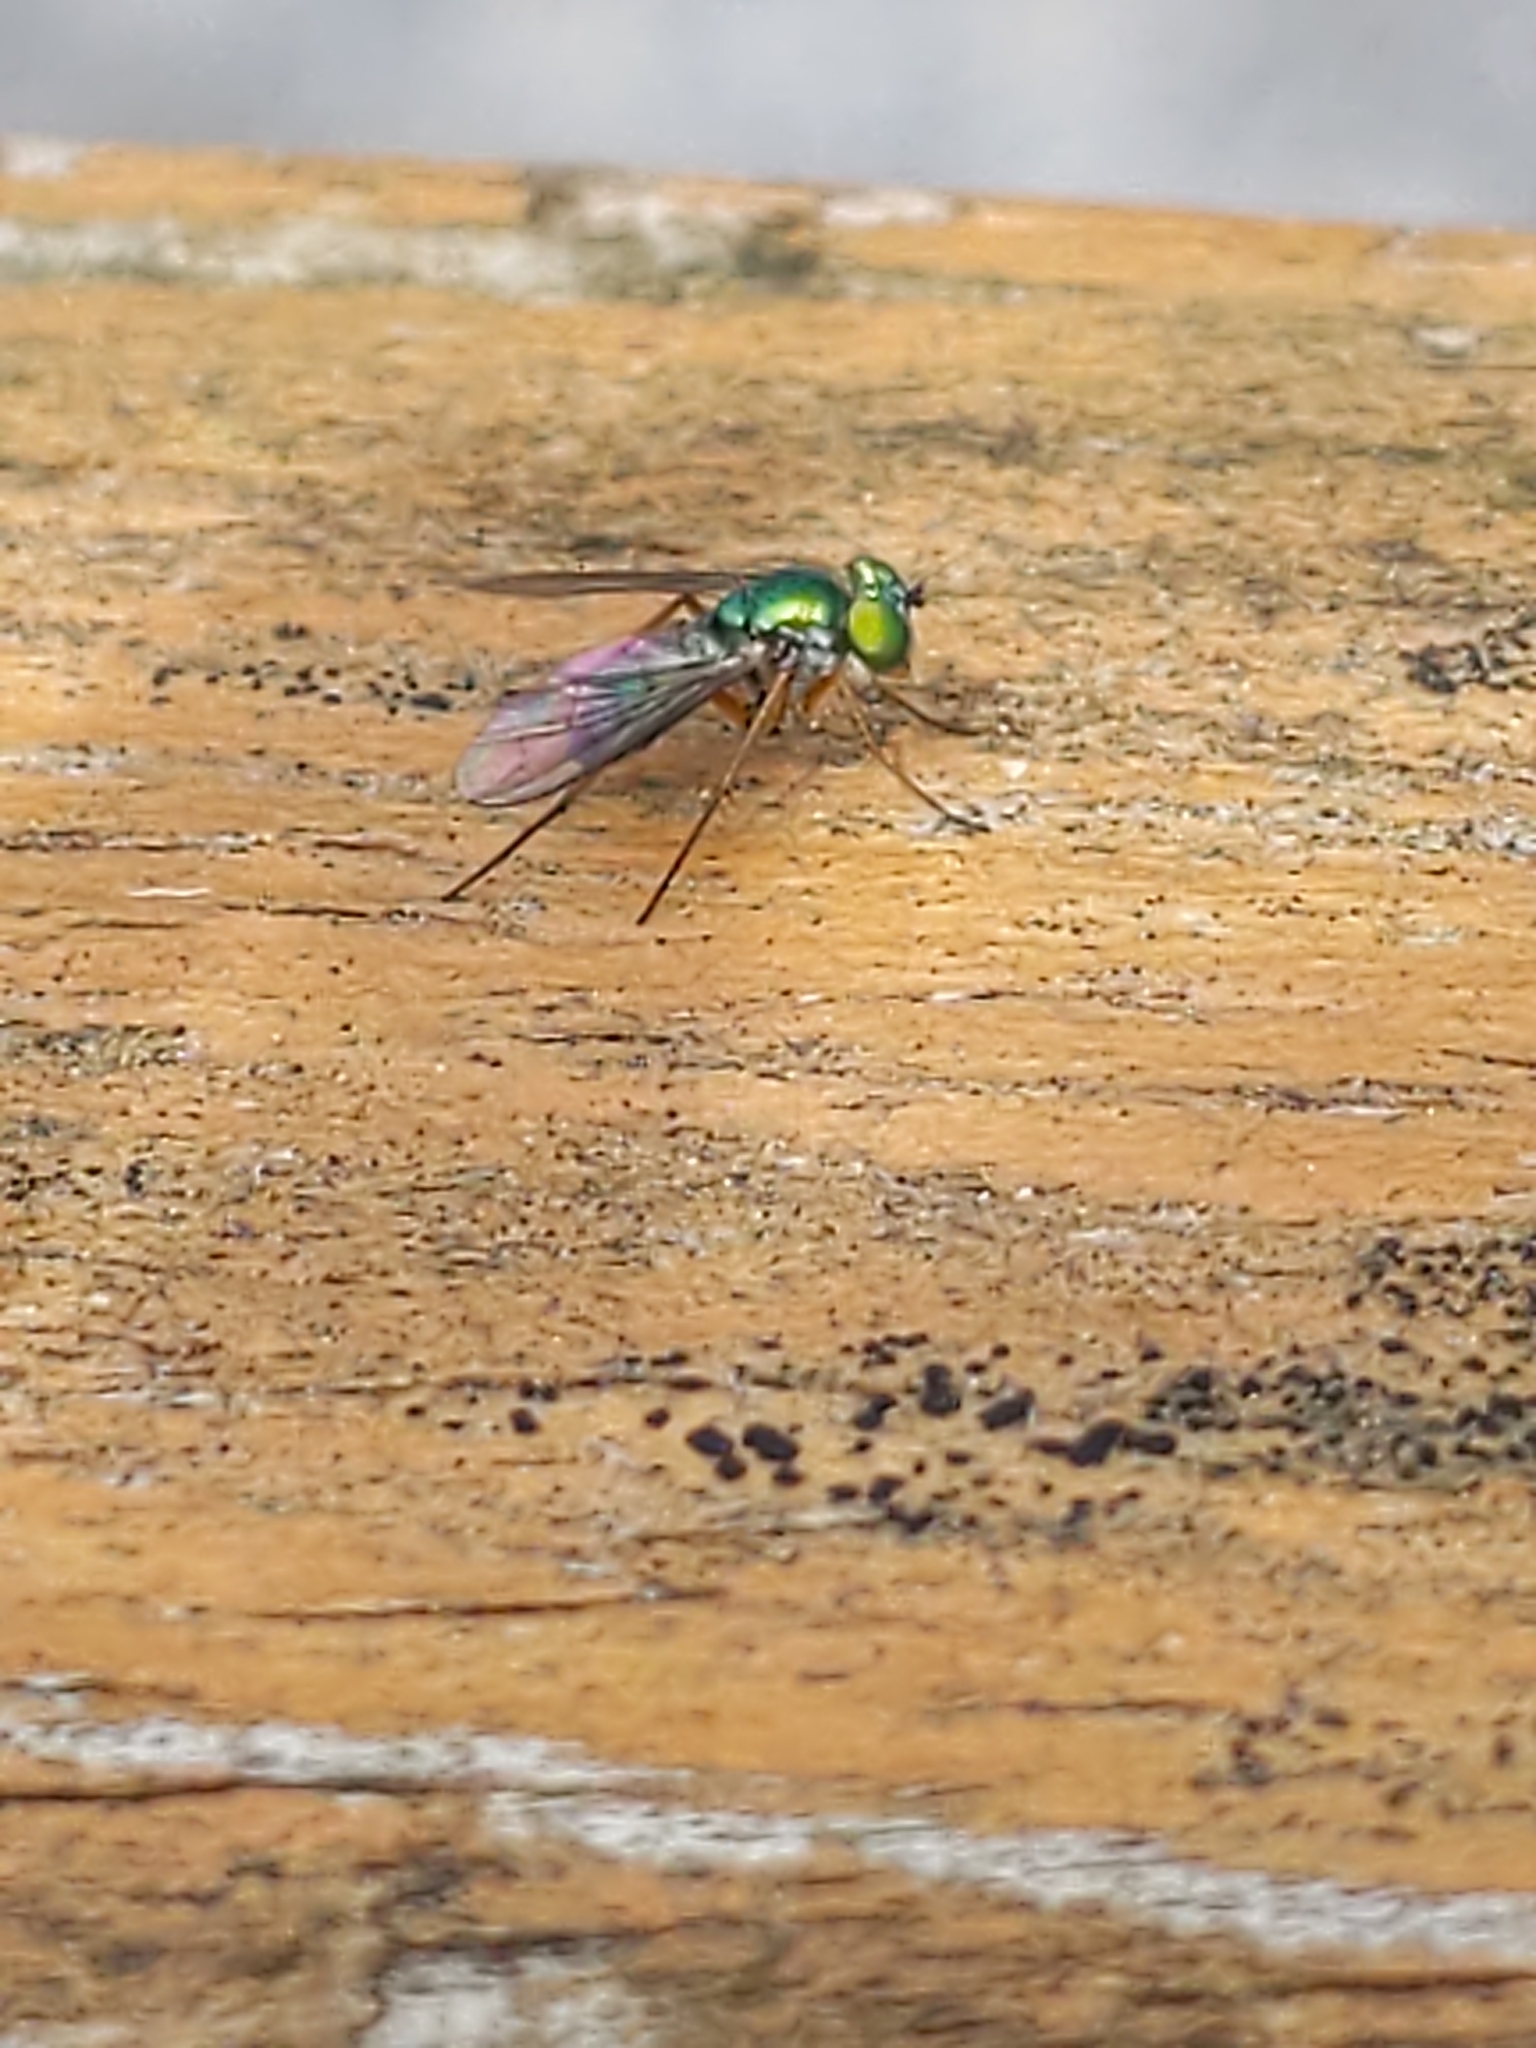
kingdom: Animalia
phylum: Arthropoda
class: Insecta
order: Diptera
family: Dolichopodidae
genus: Condylostylus
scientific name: Condylostylus
